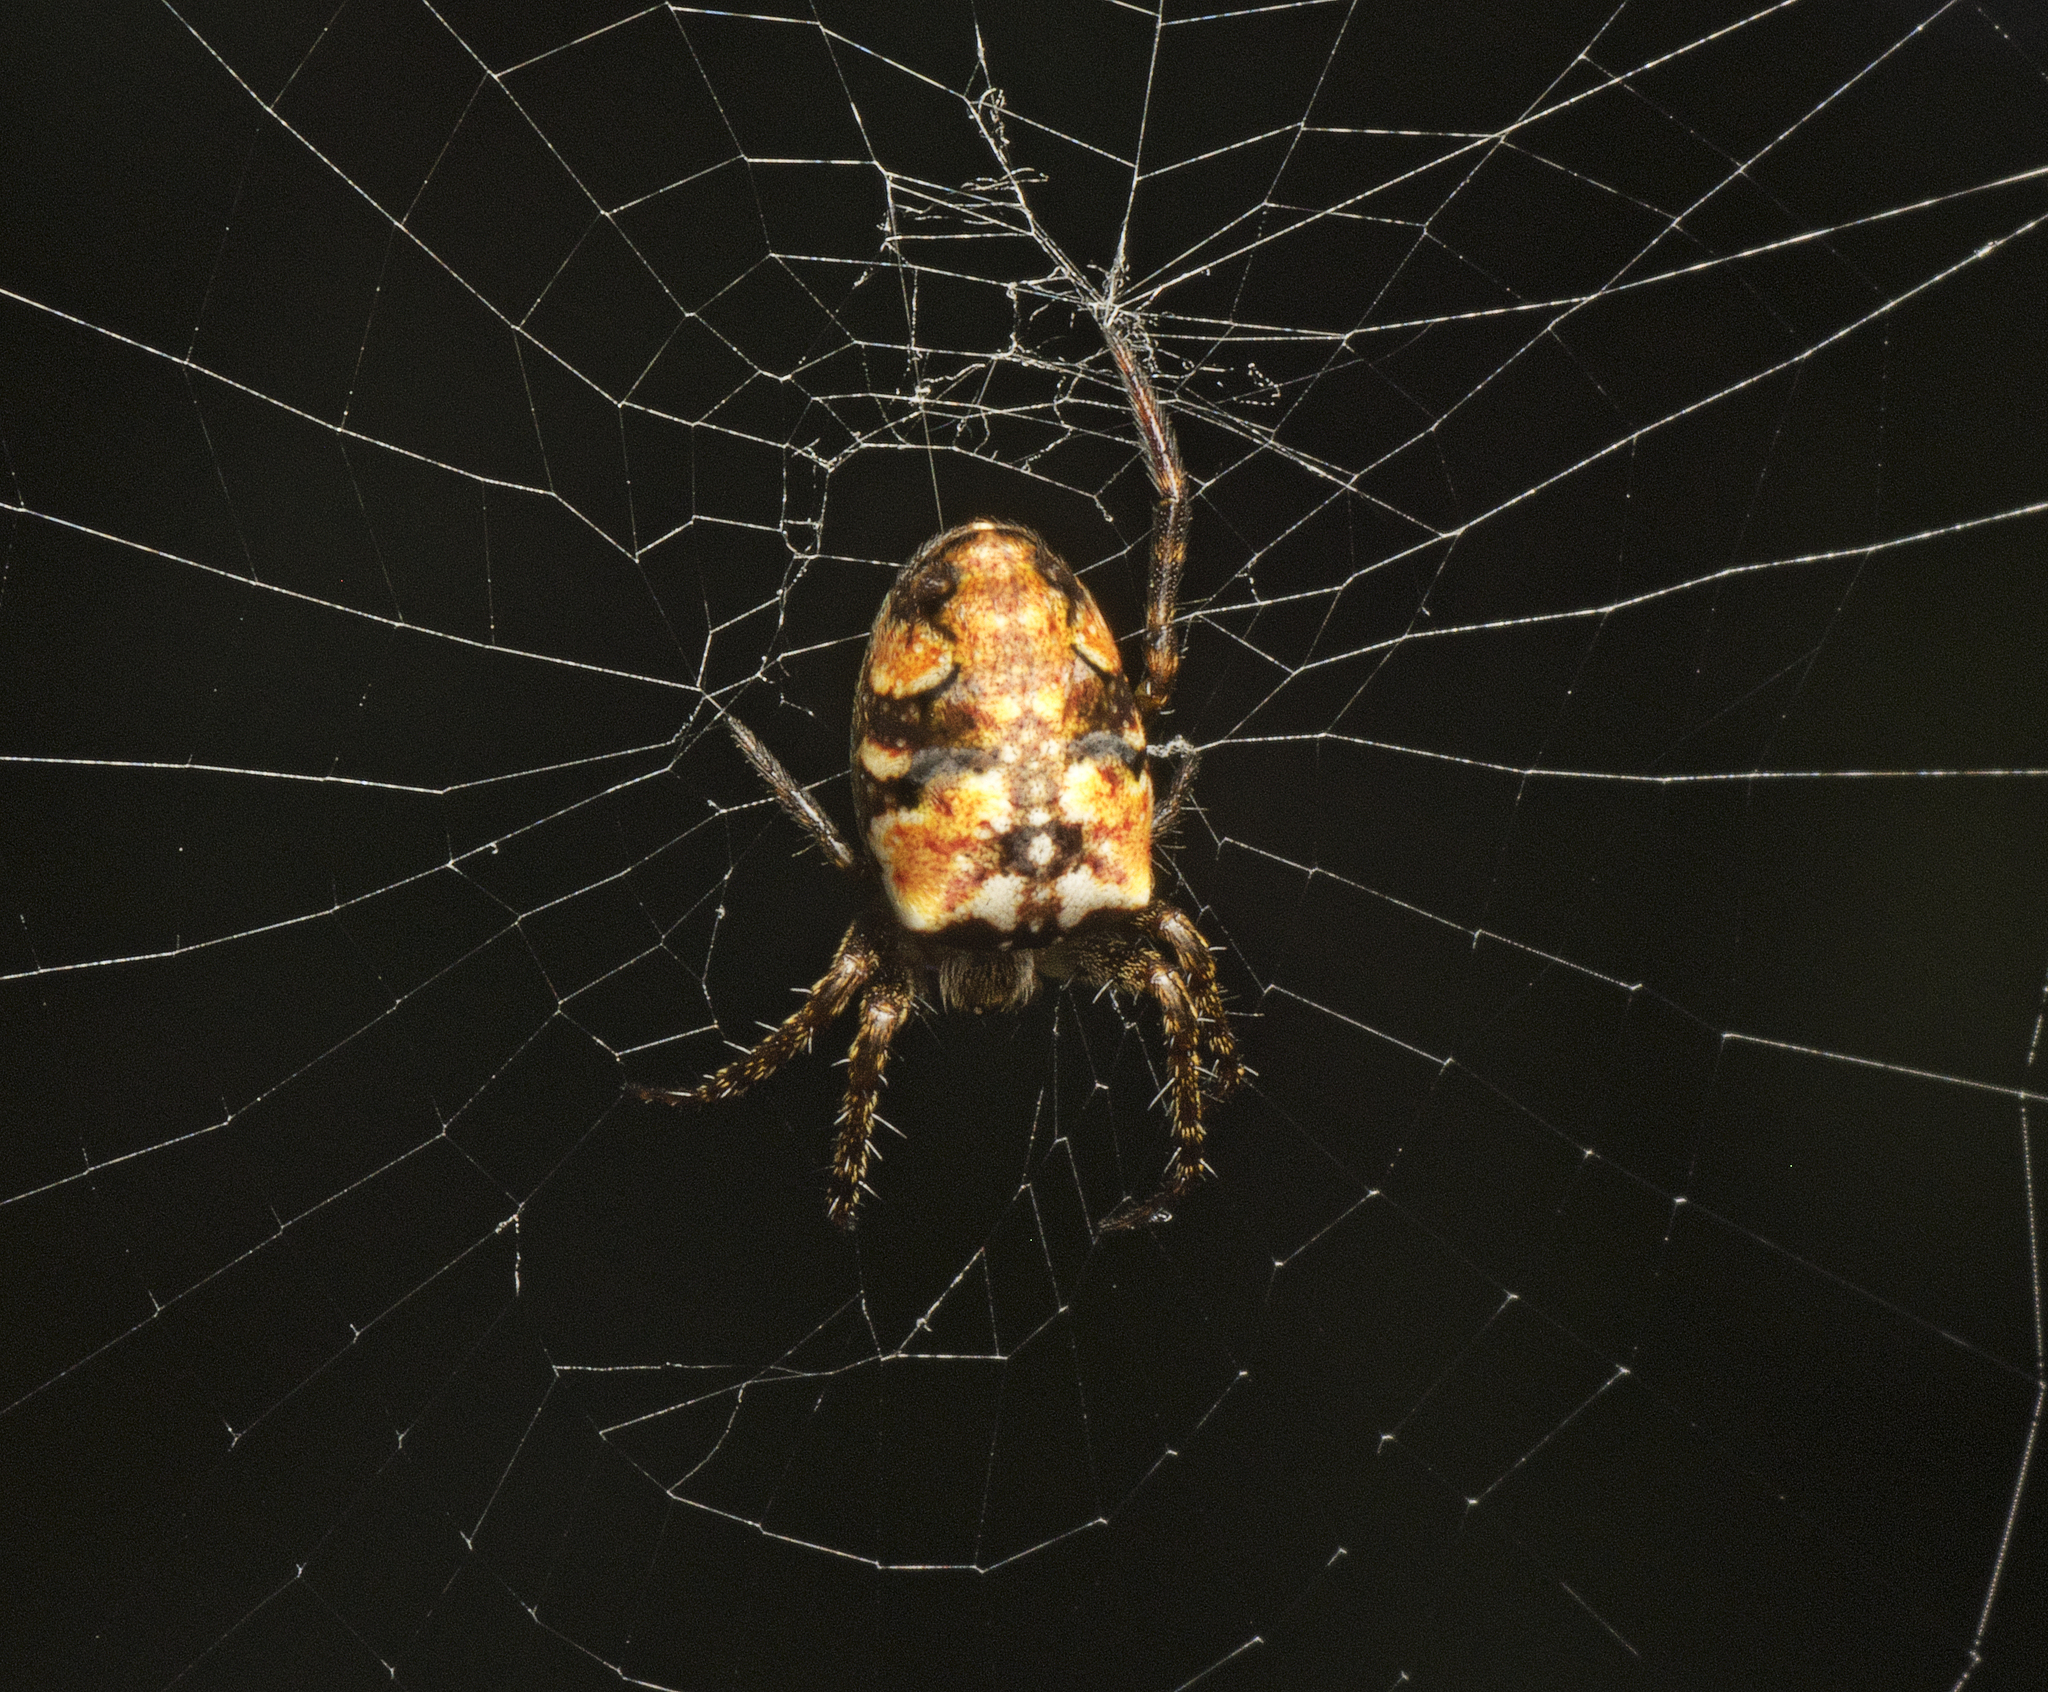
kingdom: Animalia
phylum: Arthropoda
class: Arachnida
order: Araneae
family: Araneidae
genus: Plebs
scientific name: Plebs eburnus
